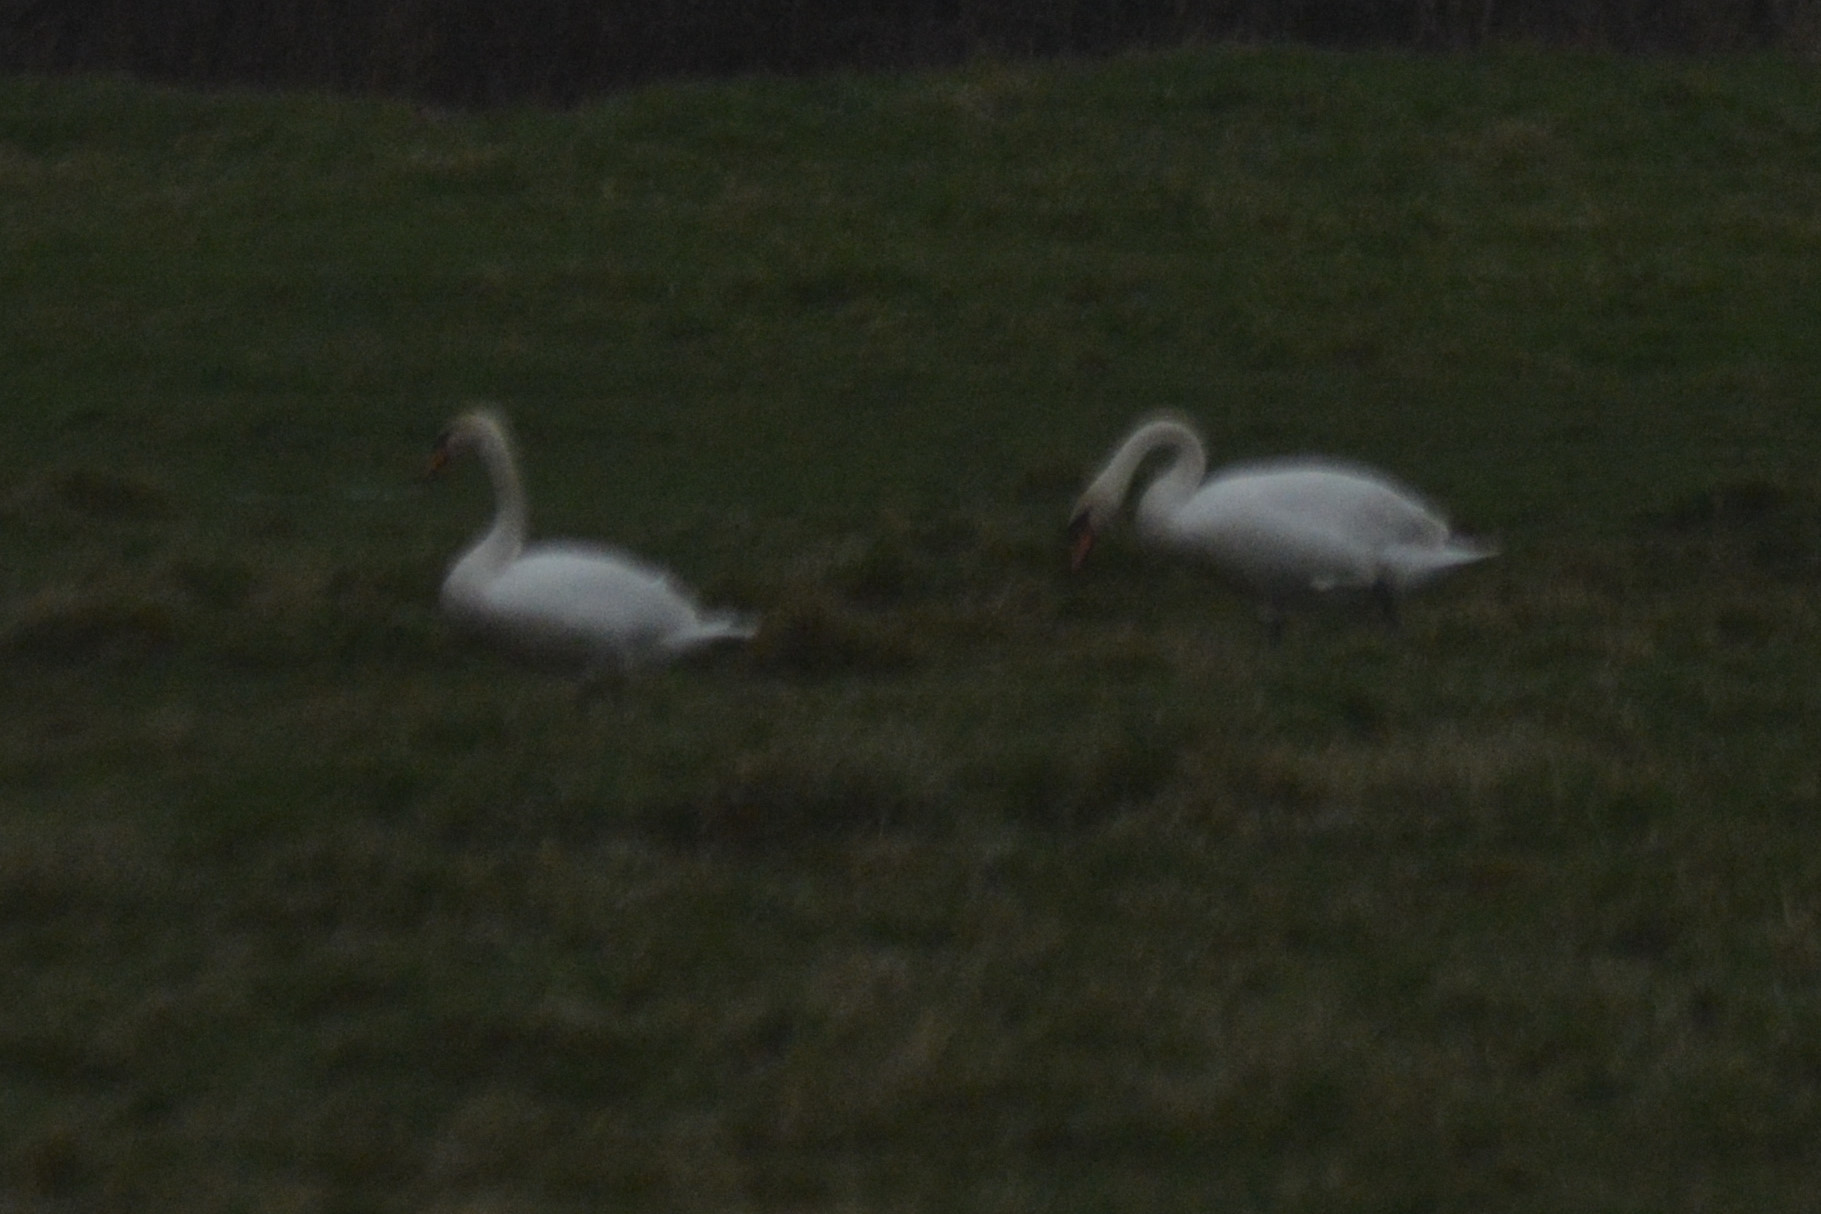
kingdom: Animalia
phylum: Chordata
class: Aves
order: Anseriformes
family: Anatidae
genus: Cygnus
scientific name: Cygnus olor
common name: Mute swan
